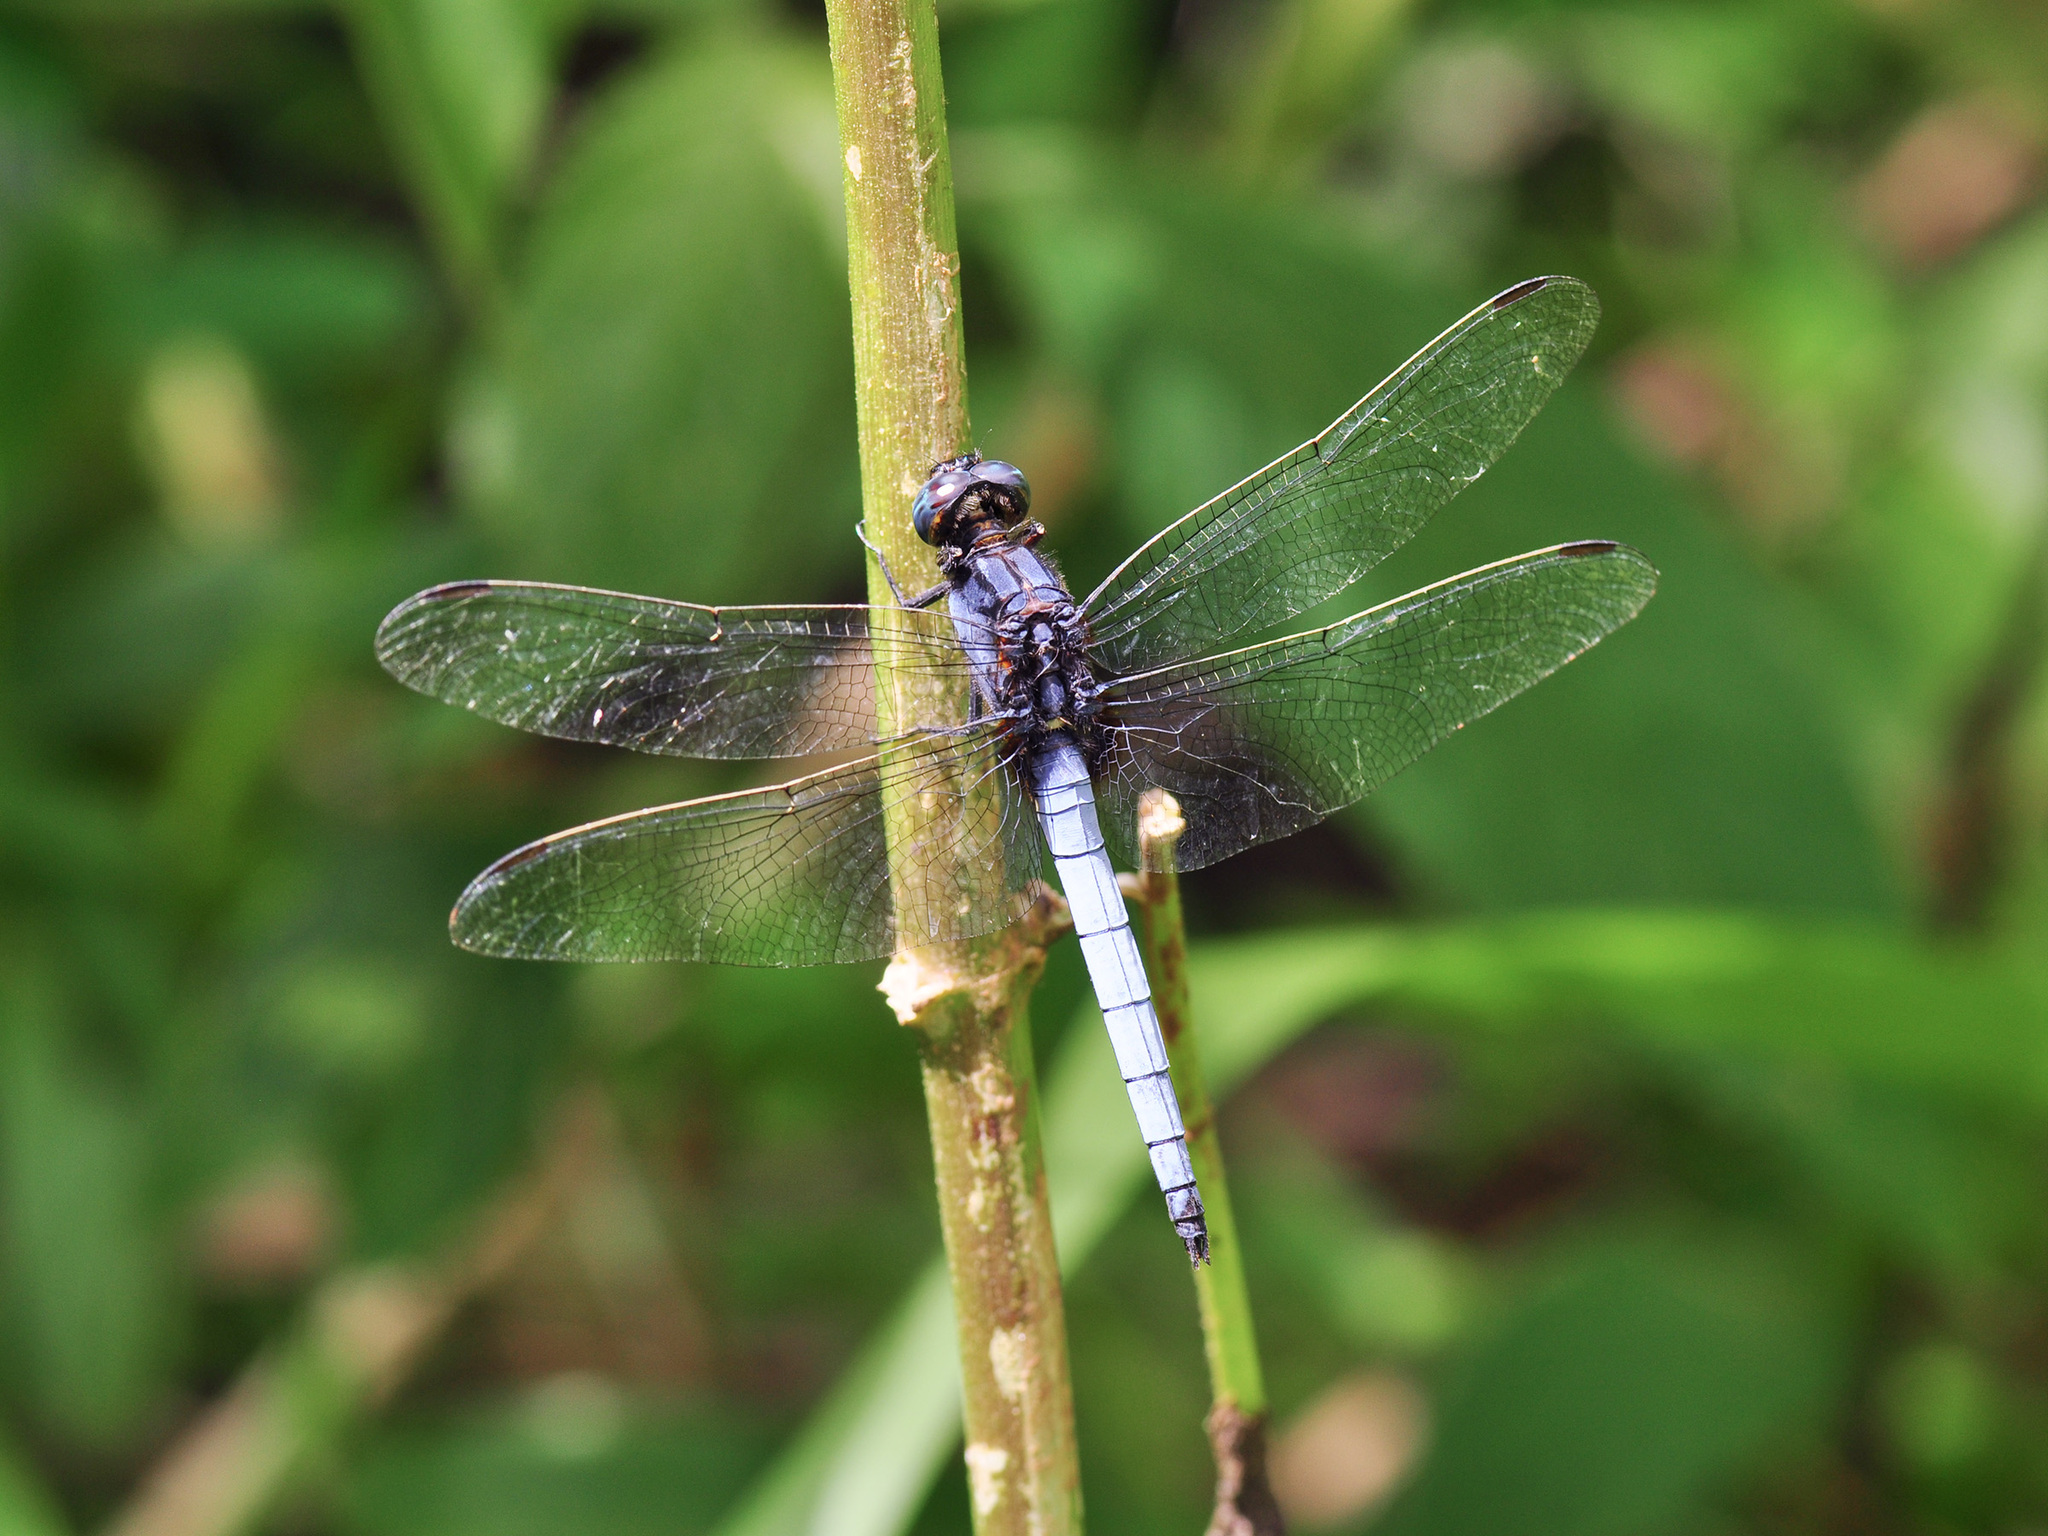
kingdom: Animalia
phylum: Arthropoda
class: Insecta
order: Odonata
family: Libellulidae
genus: Orthetrum
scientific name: Orthetrum glaucum
